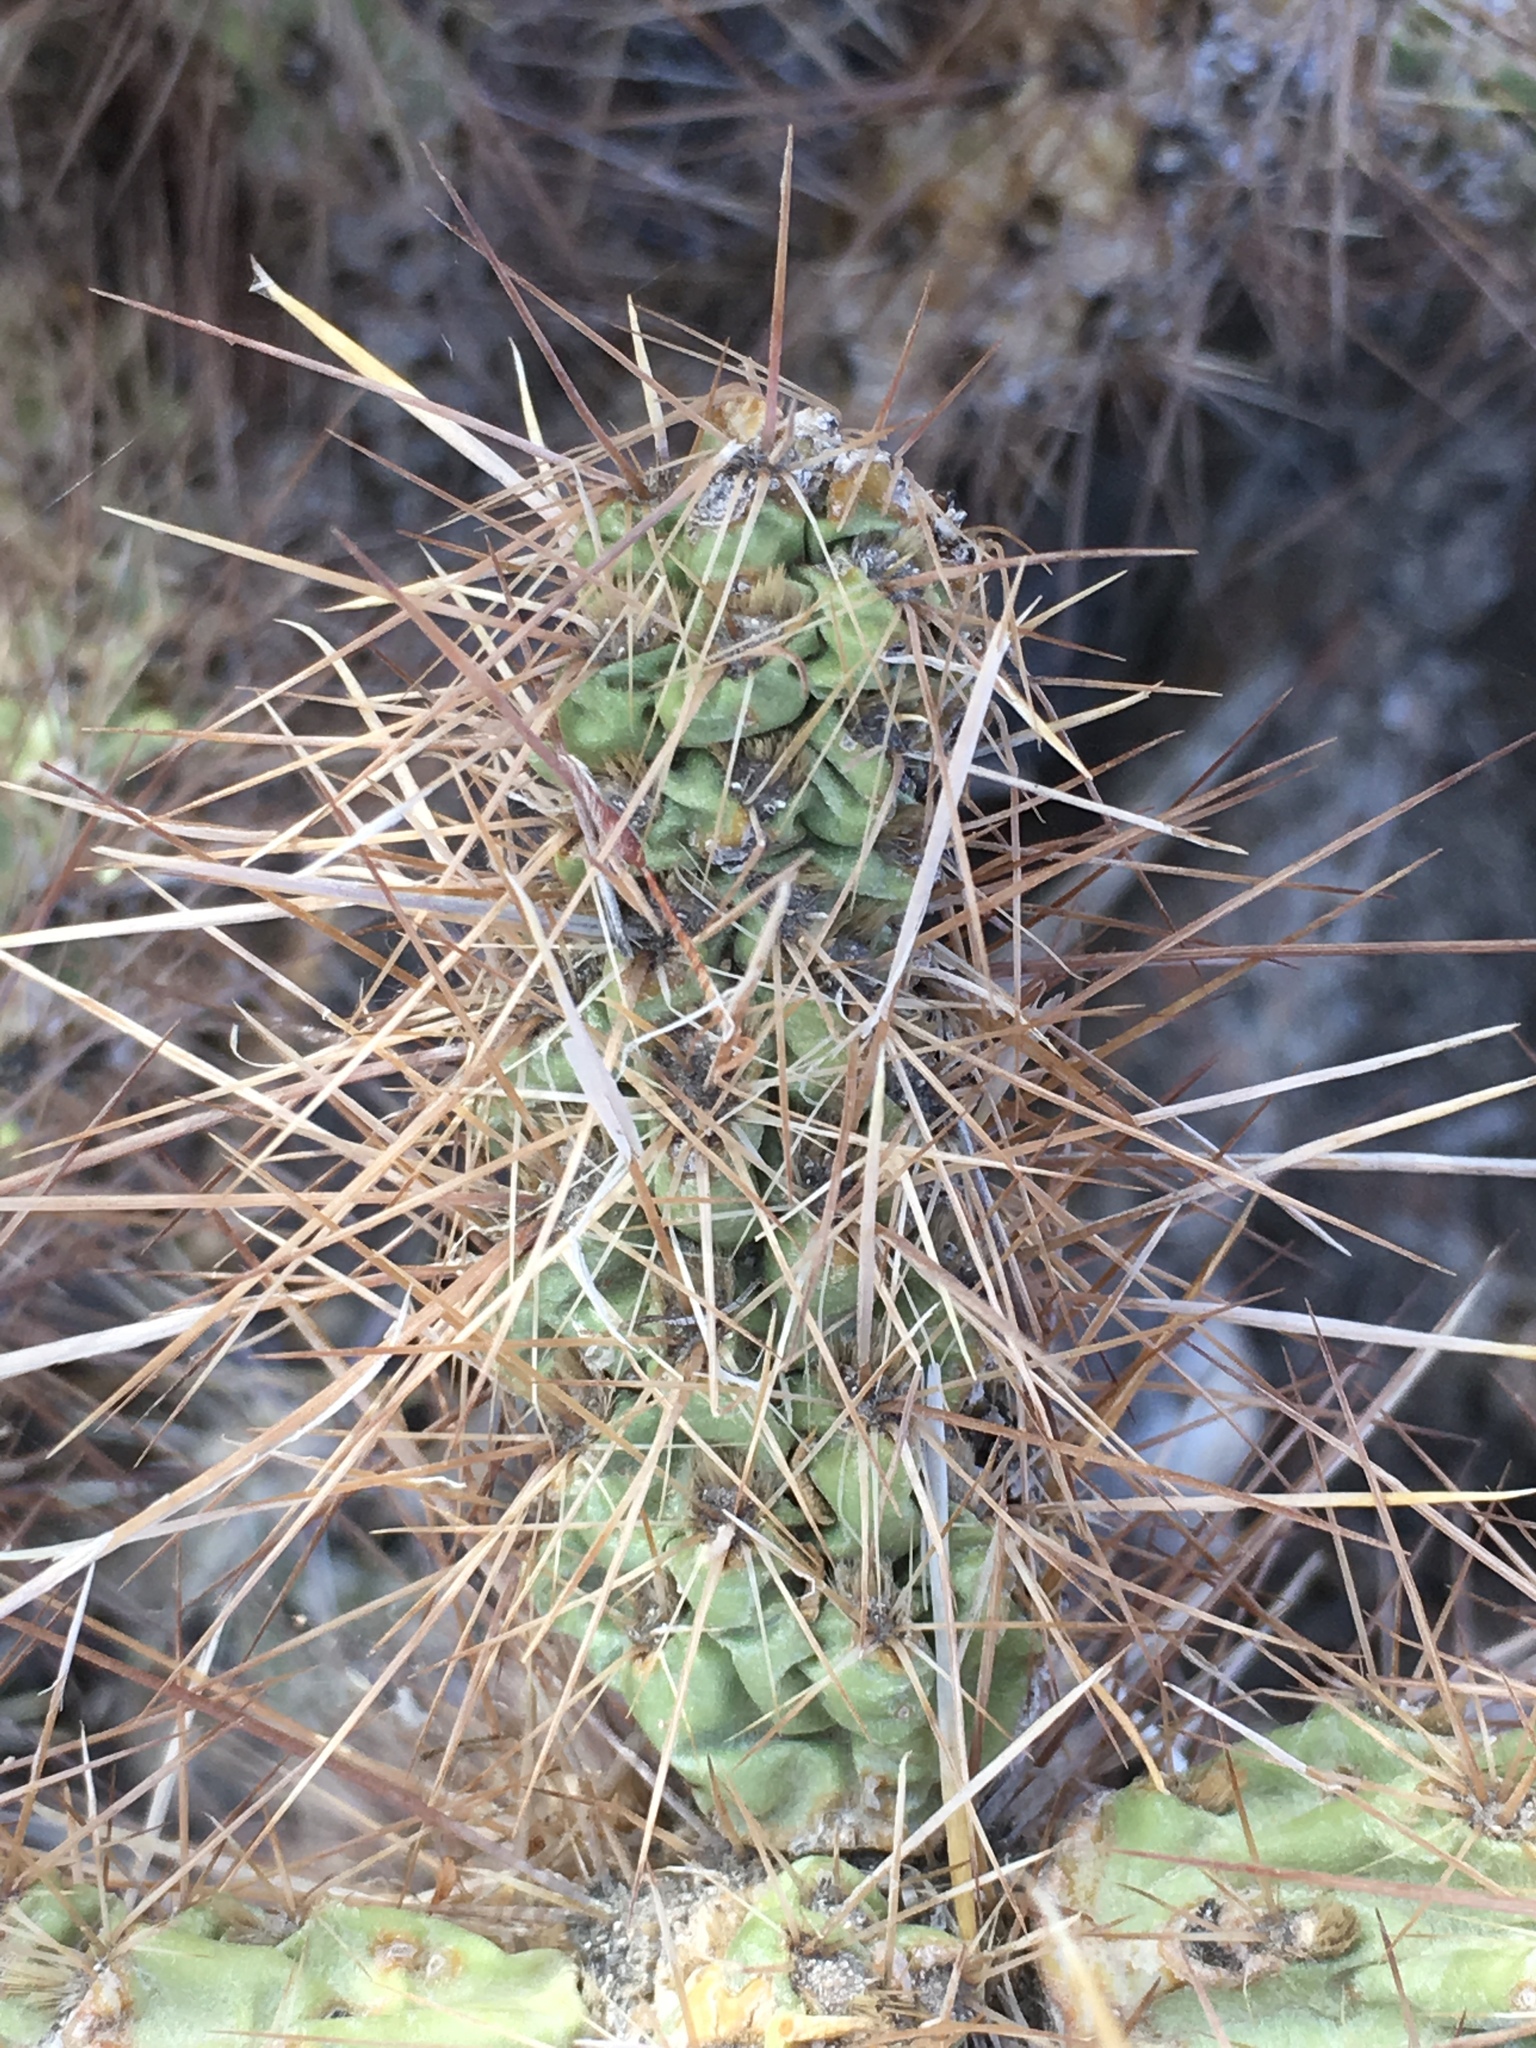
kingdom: Plantae
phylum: Tracheophyta
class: Magnoliopsida
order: Caryophyllales
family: Cactaceae
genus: Cylindropuntia
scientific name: Cylindropuntia echinocarpa
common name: Ground cholla
